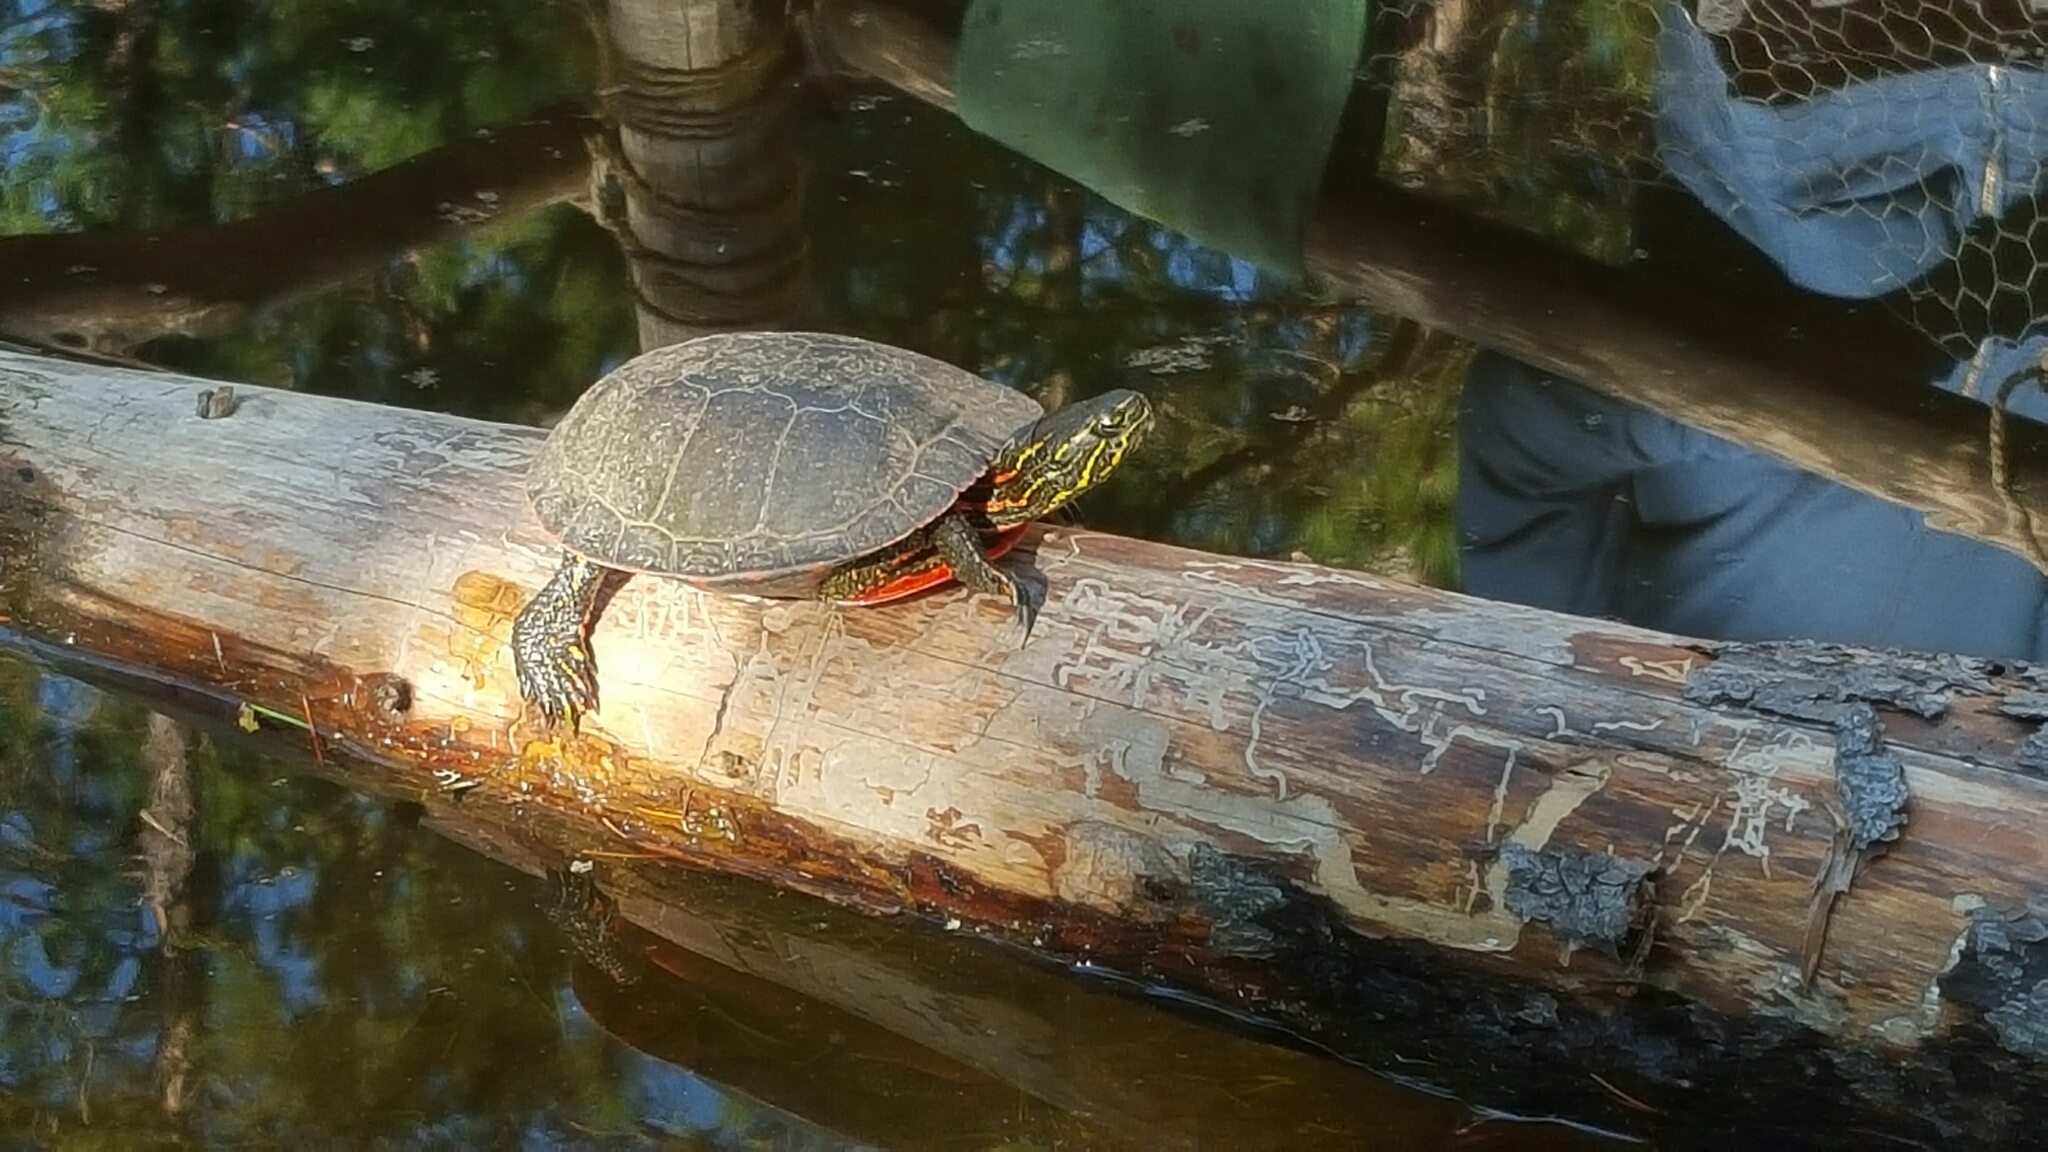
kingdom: Animalia
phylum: Chordata
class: Testudines
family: Emydidae
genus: Chrysemys
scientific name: Chrysemys picta
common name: Painted turtle
